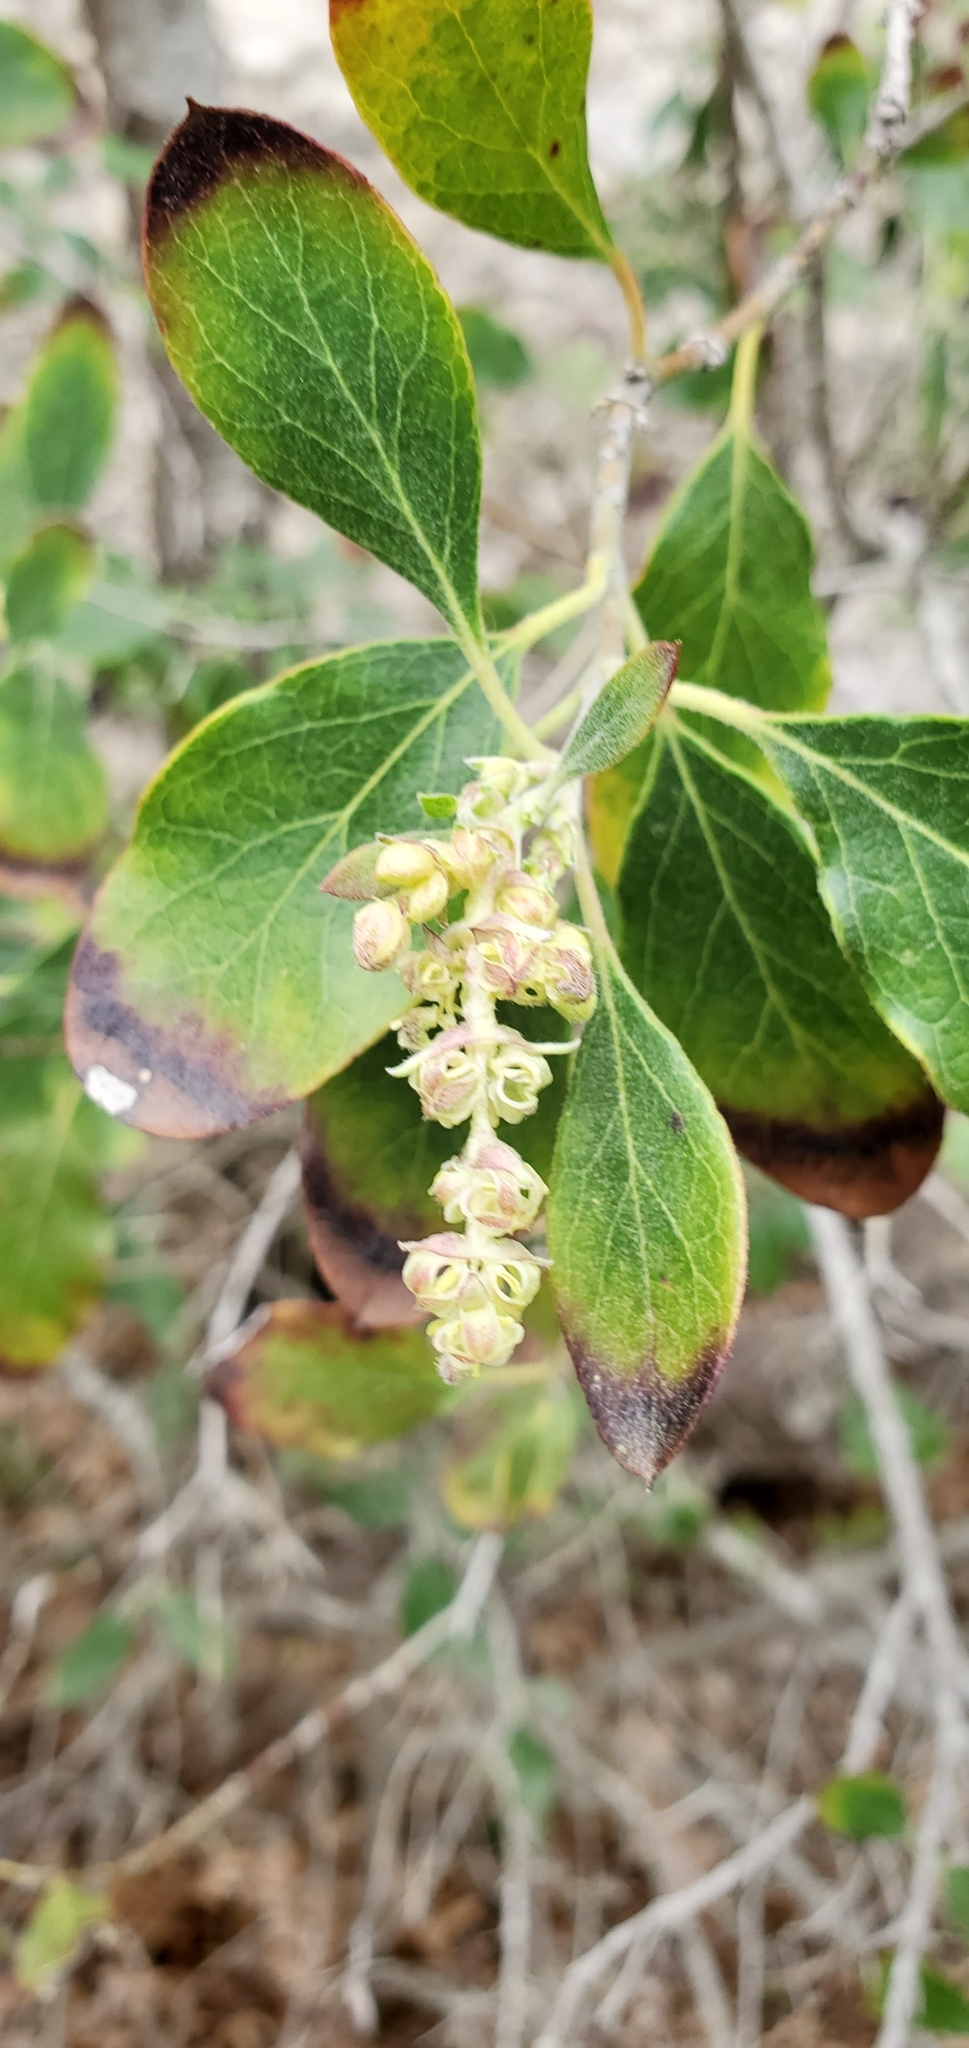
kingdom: Plantae
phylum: Tracheophyta
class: Magnoliopsida
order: Garryales
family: Garryaceae
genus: Garrya
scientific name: Garrya lindheimeri
